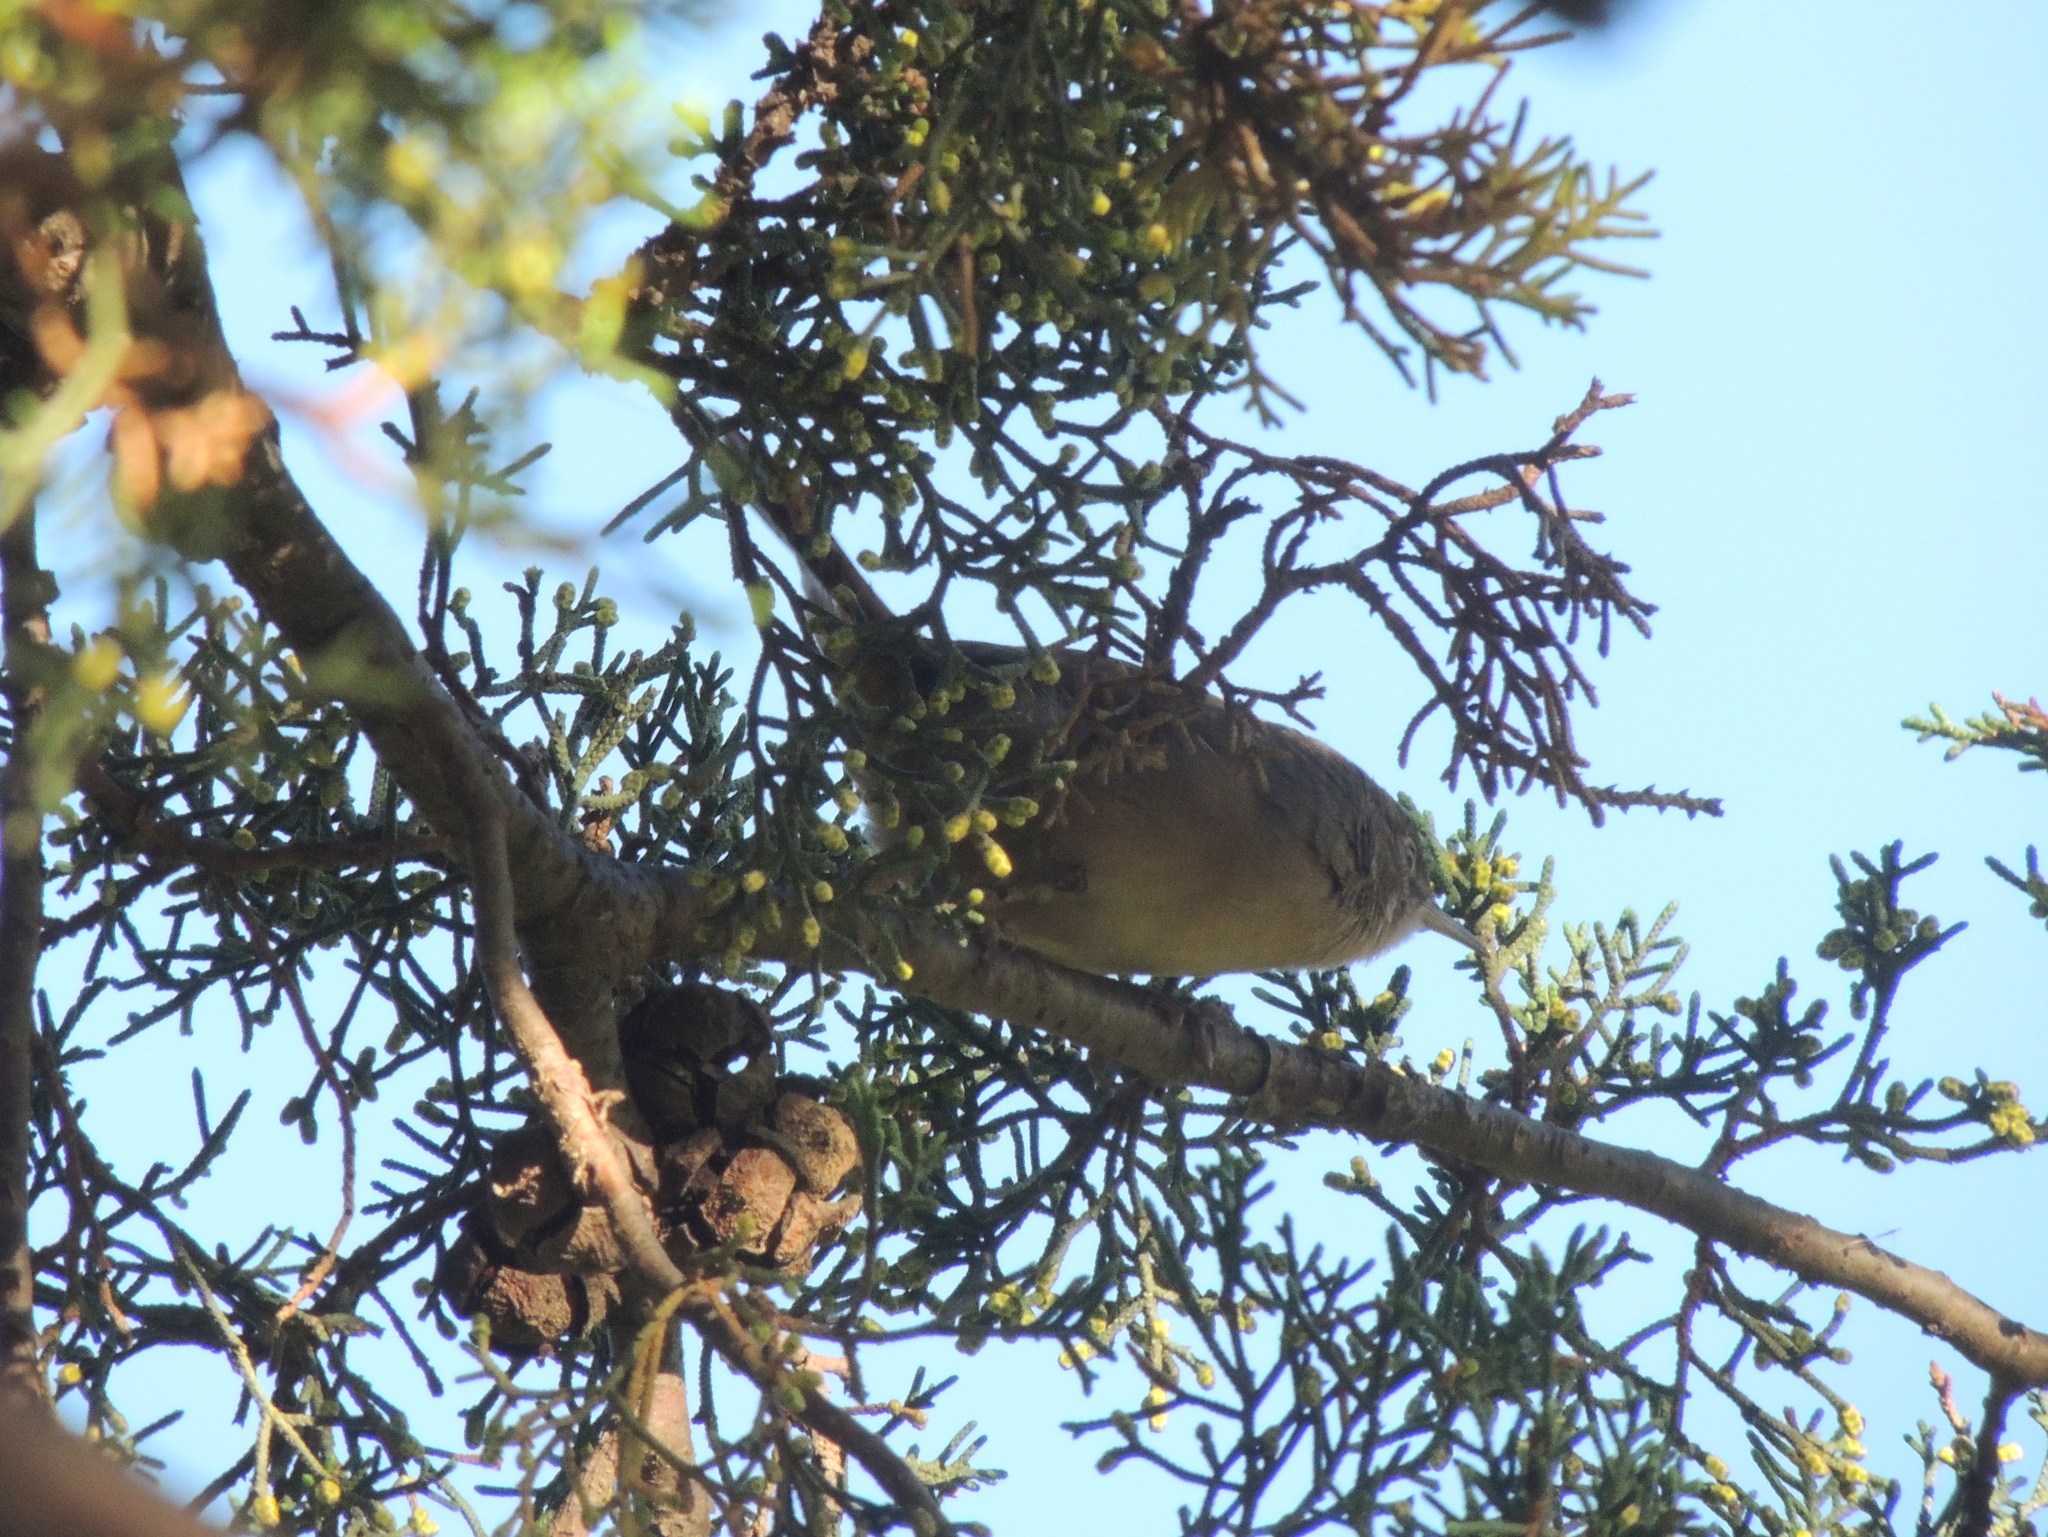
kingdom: Animalia
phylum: Chordata
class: Aves
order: Passeriformes
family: Troglodytidae
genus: Troglodytes
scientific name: Troglodytes aedon
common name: House wren
